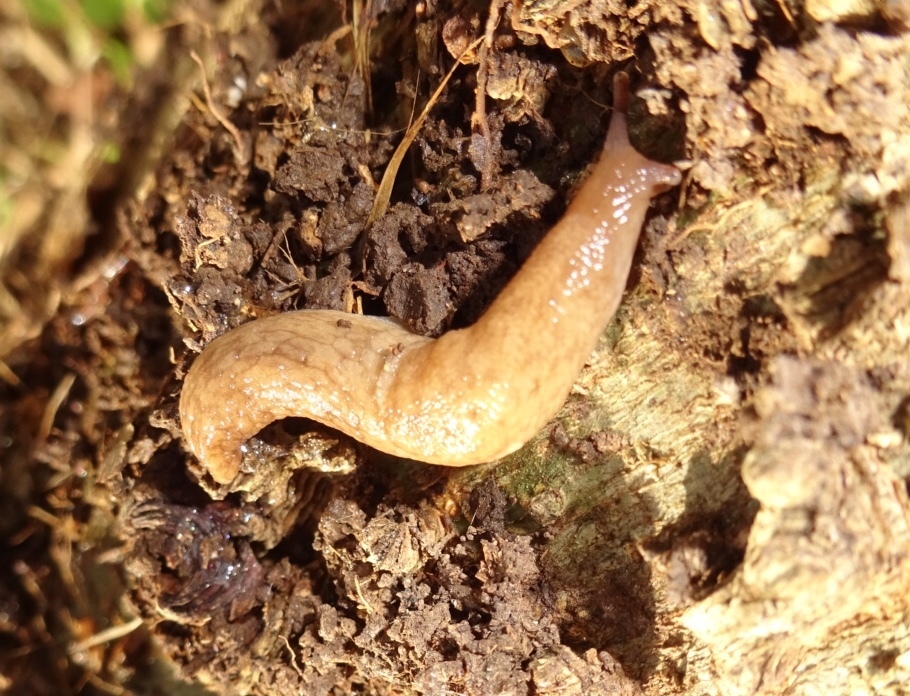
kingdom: Animalia
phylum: Mollusca
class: Gastropoda
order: Stylommatophora
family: Agriolimacidae
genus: Deroceras
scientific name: Deroceras reticulatum
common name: Gray field slug
